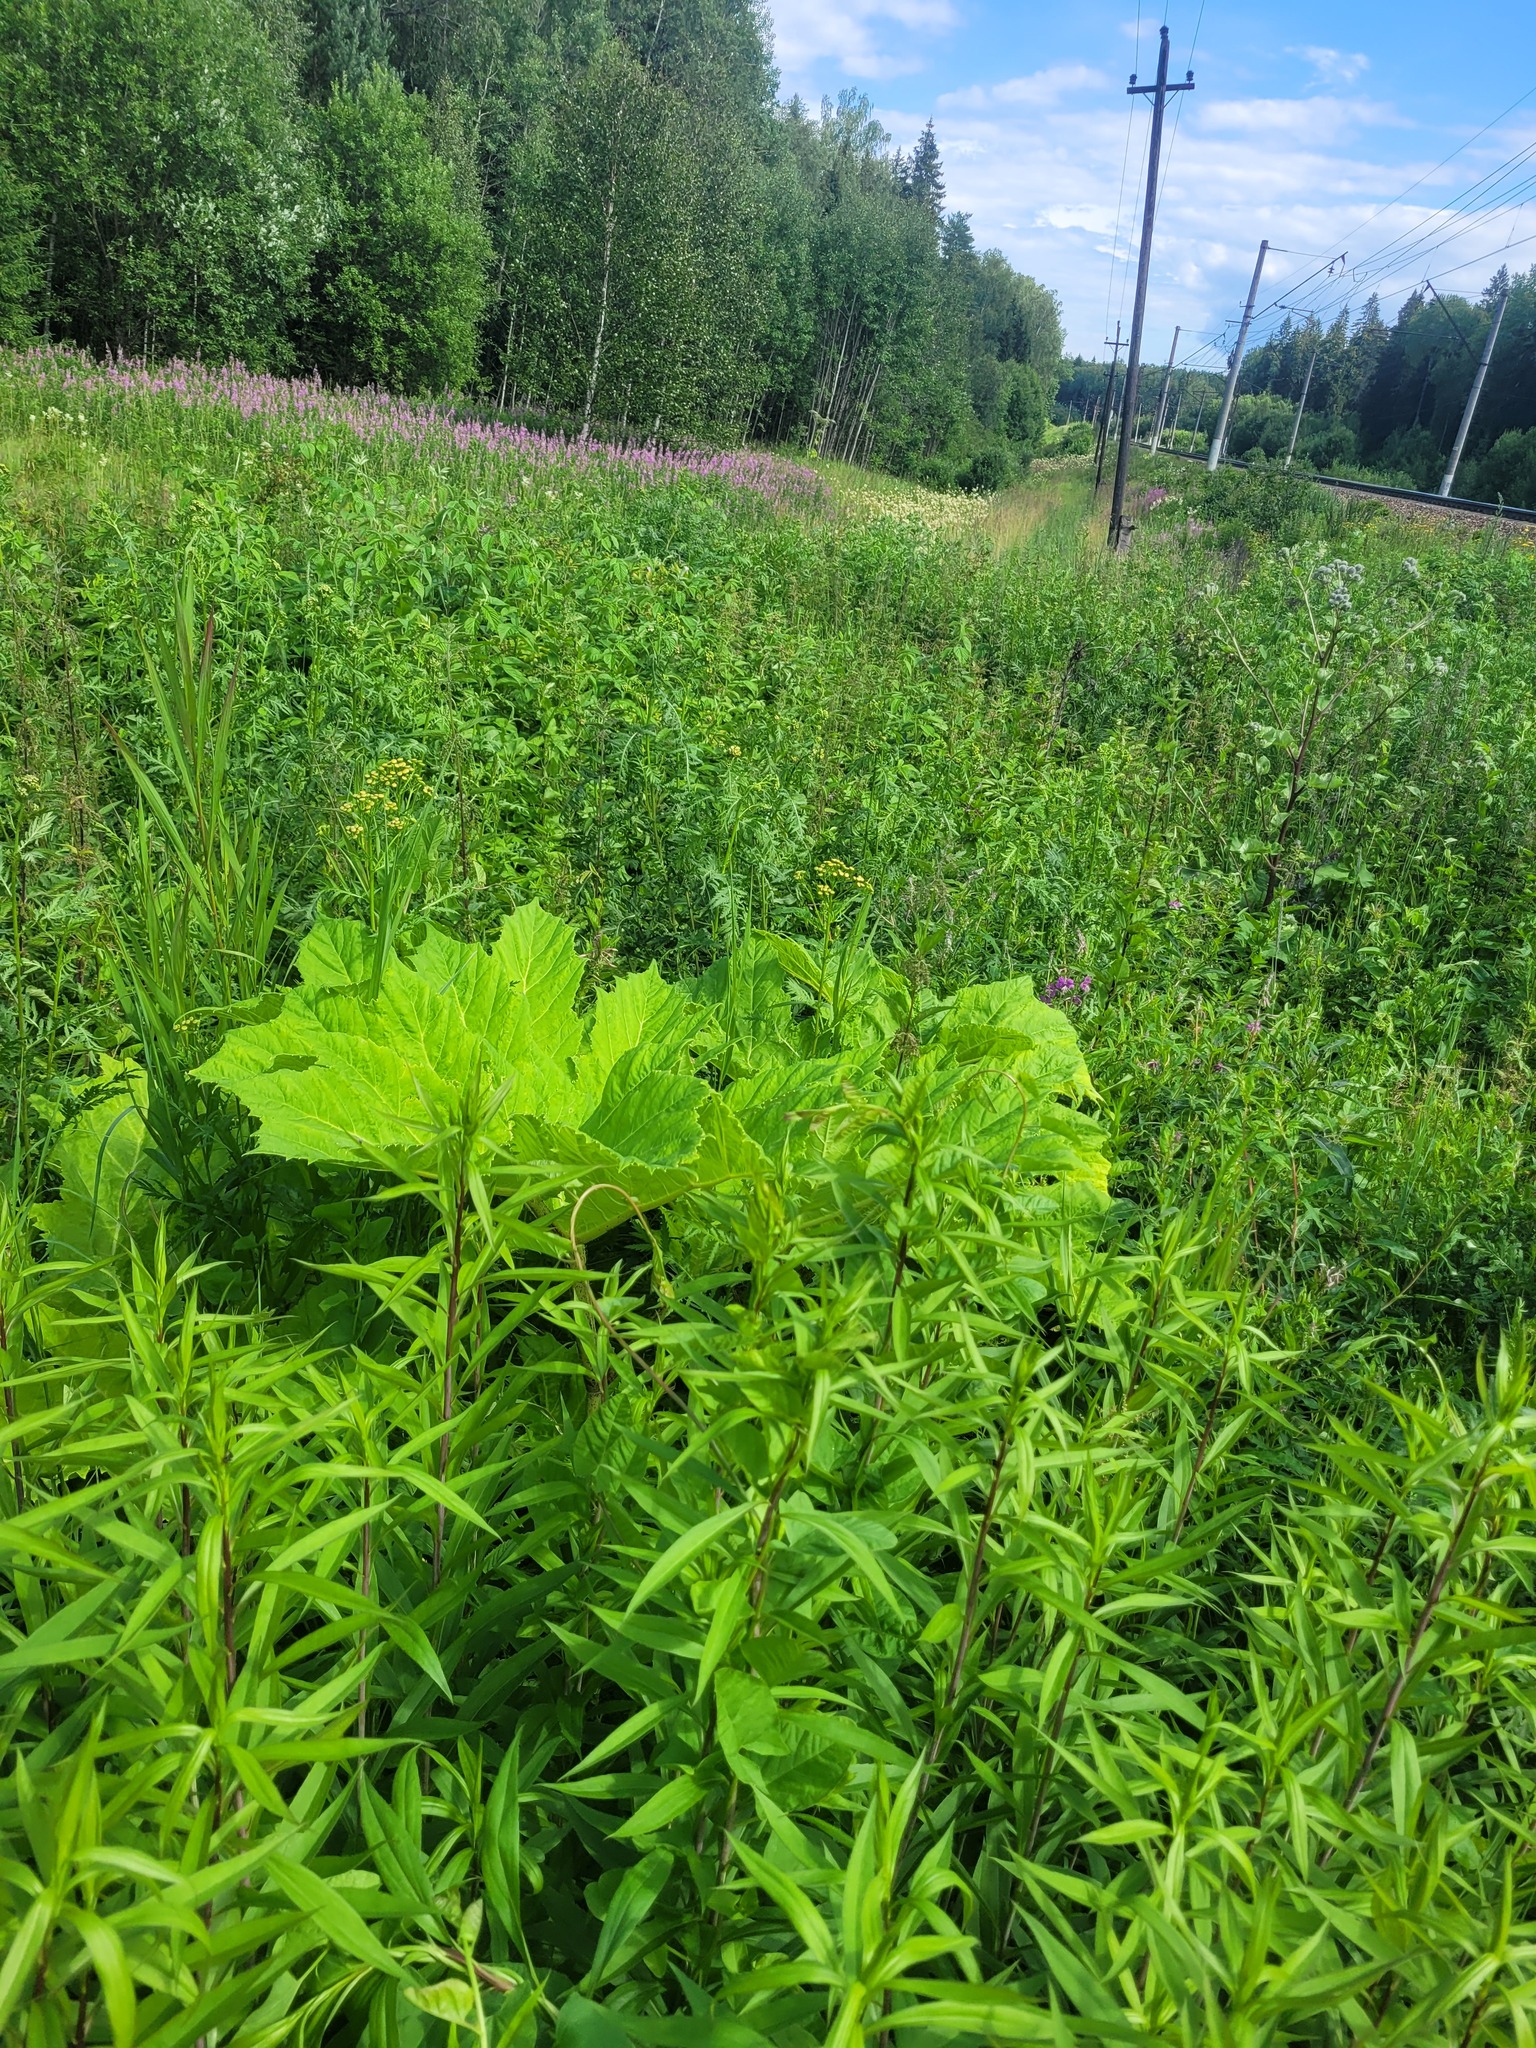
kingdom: Plantae
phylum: Tracheophyta
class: Magnoliopsida
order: Apiales
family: Apiaceae
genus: Heracleum
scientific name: Heracleum sosnowskyi
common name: Sosnowsky's hogweed
